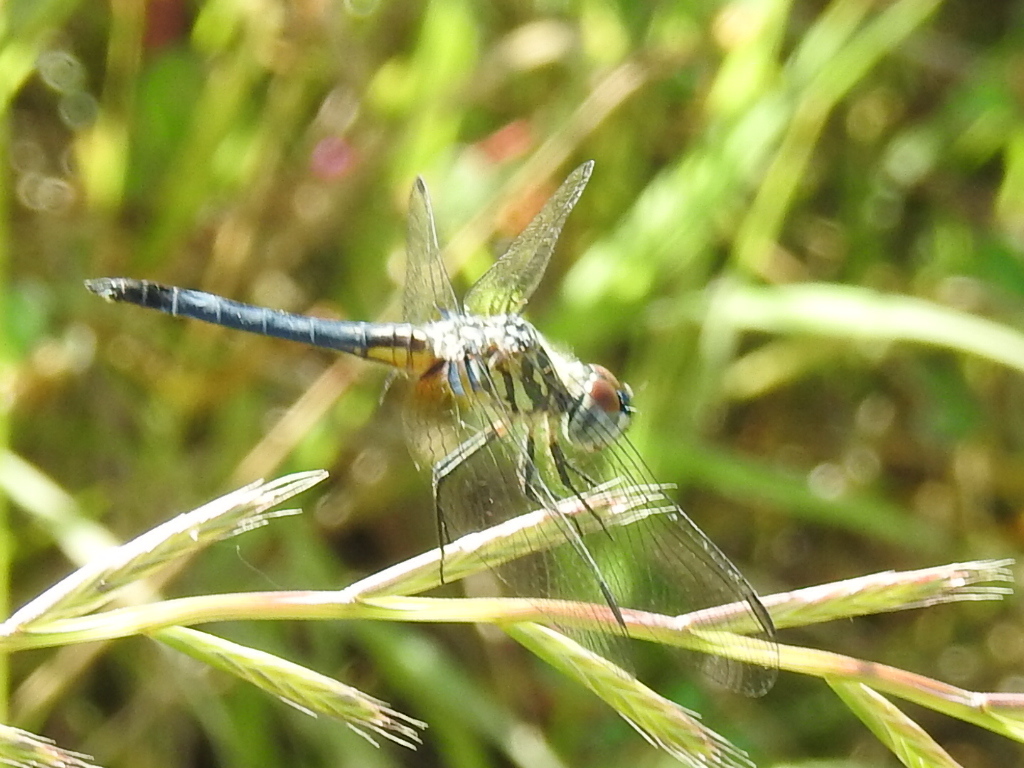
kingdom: Animalia
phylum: Arthropoda
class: Insecta
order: Odonata
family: Libellulidae
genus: Pachydiplax
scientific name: Pachydiplax longipennis
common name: Blue dasher
